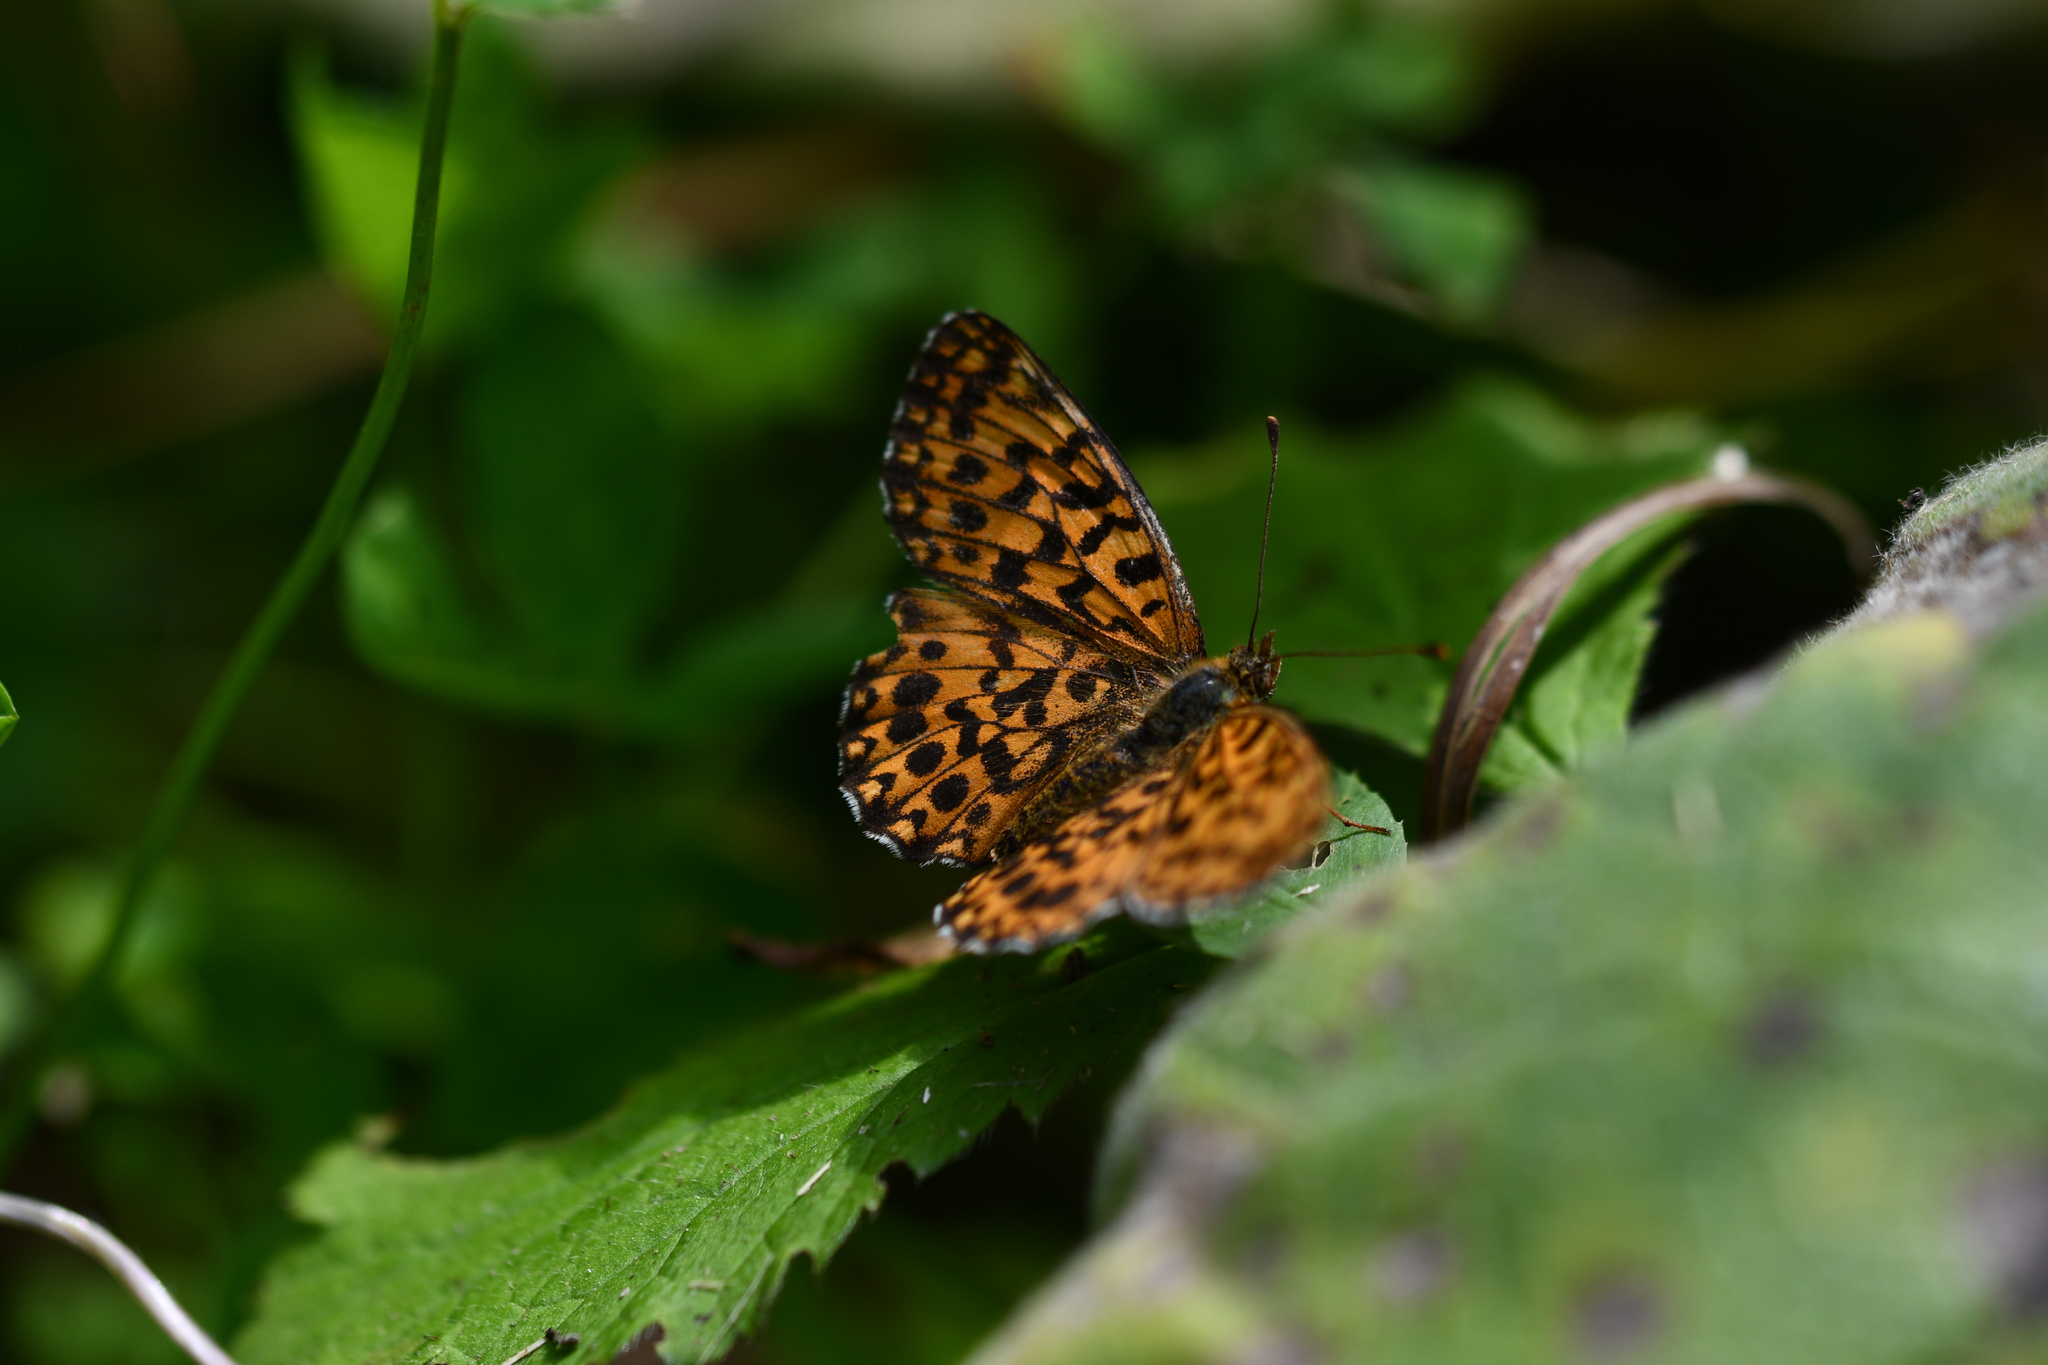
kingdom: Animalia
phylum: Arthropoda
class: Insecta
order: Lepidoptera
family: Nymphalidae
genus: Boloria
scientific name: Boloria dia
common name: Weaver's fritillary
